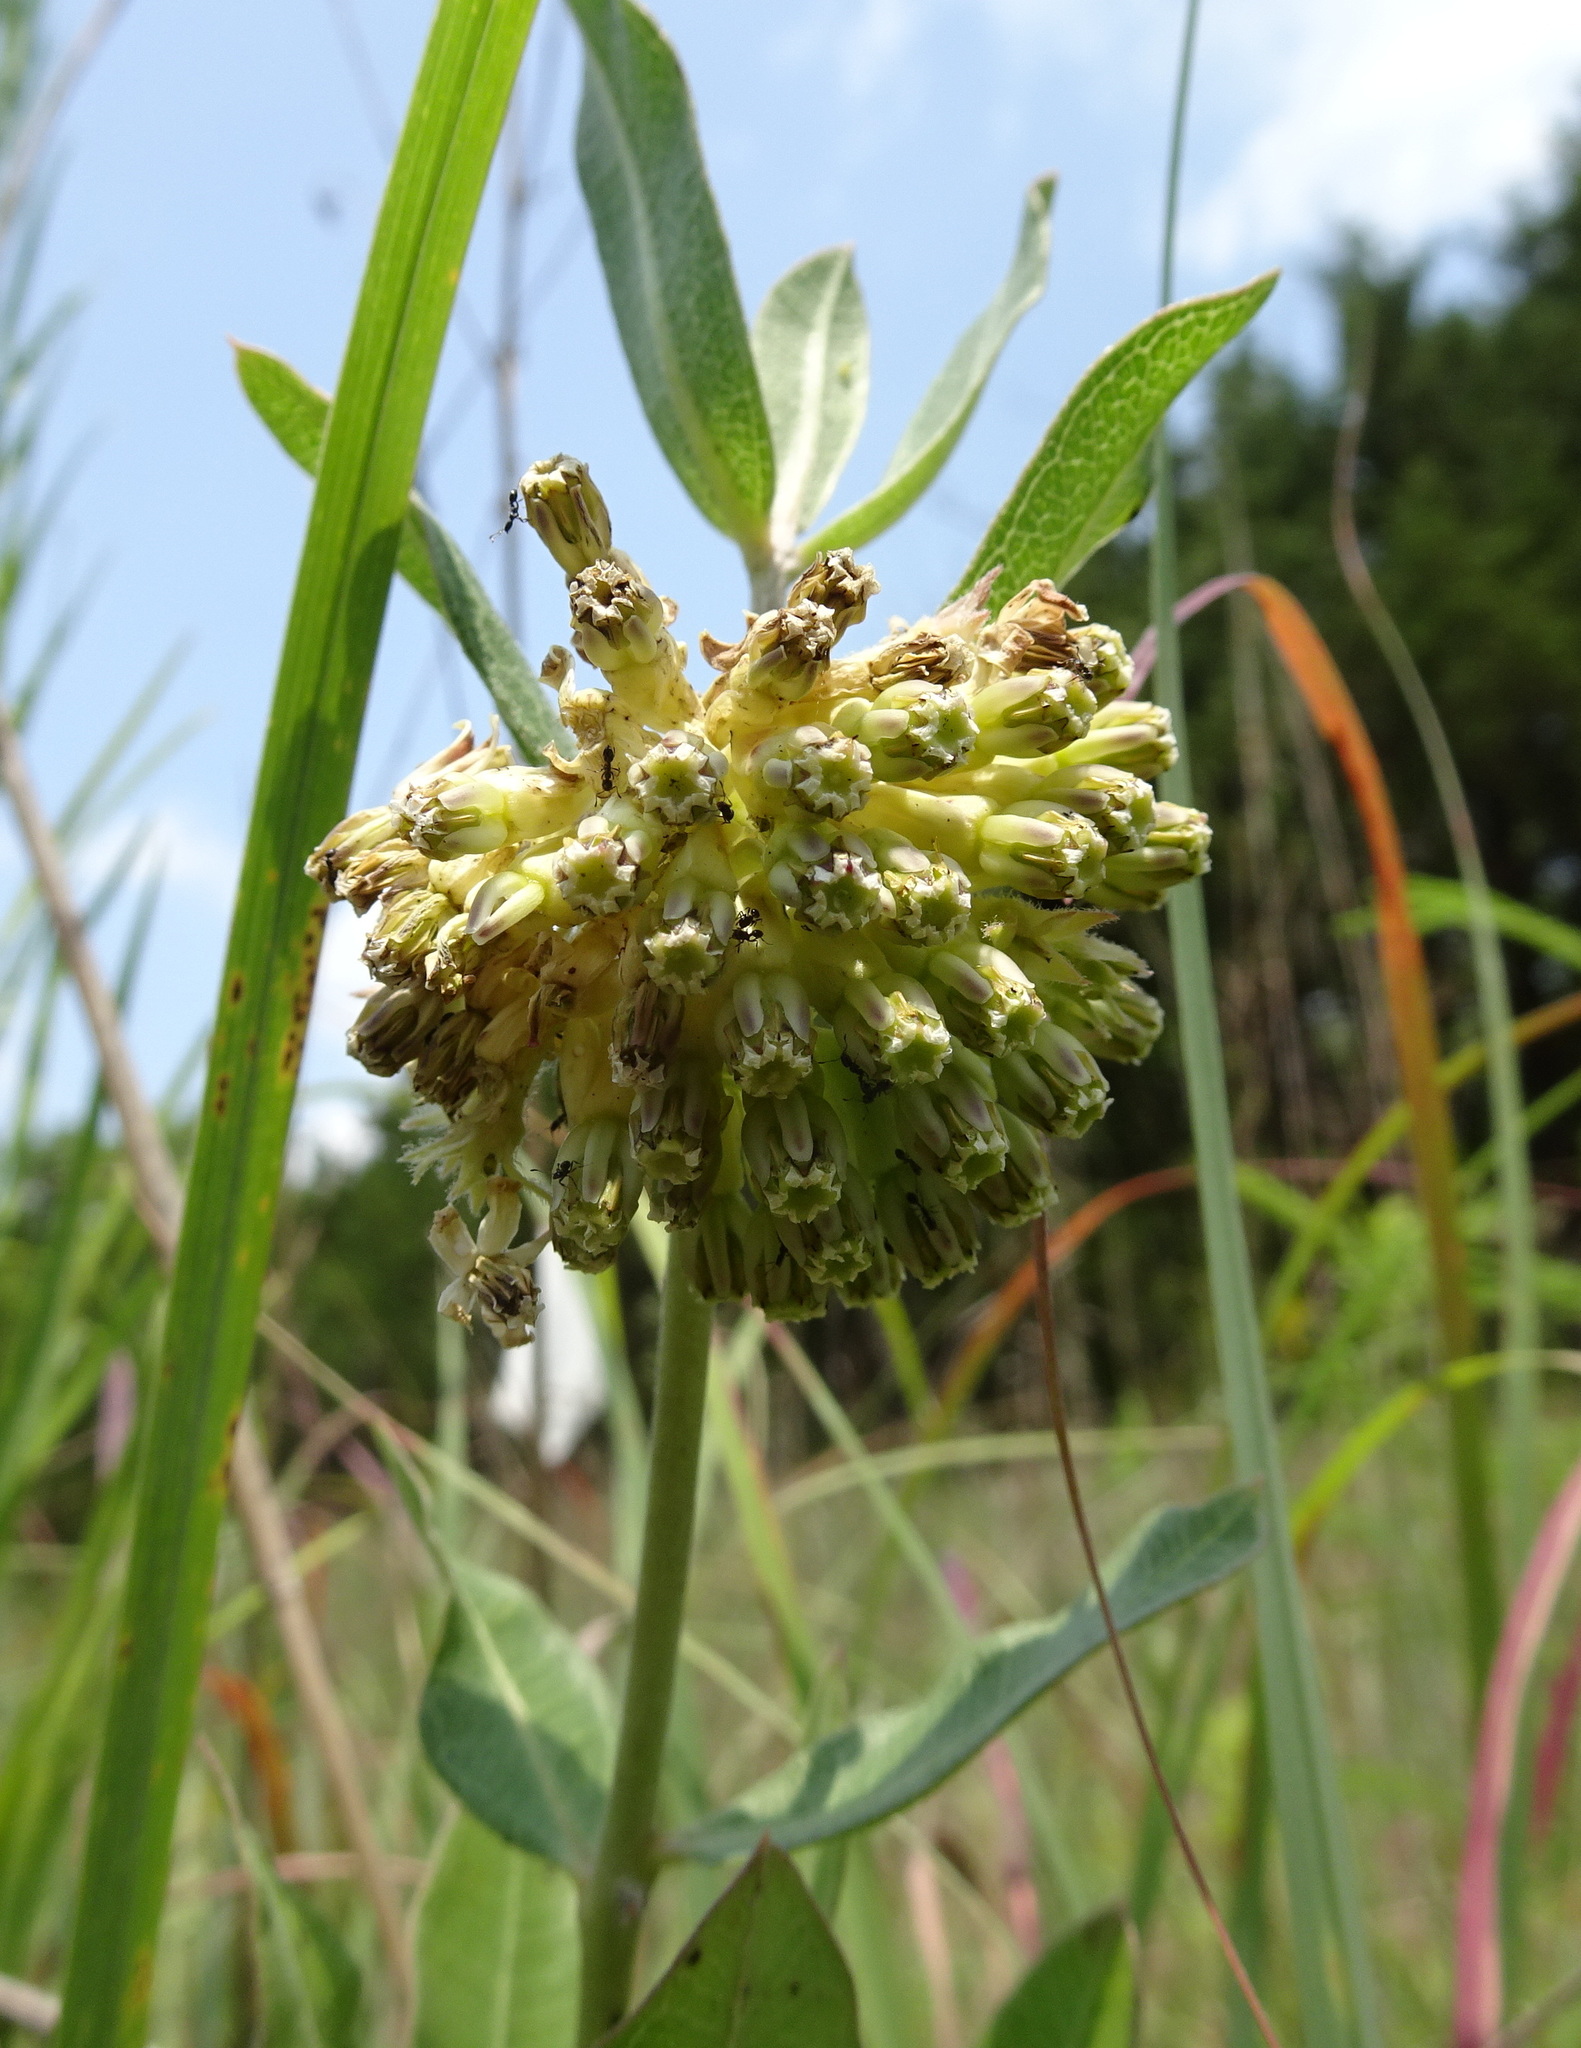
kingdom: Plantae
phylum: Tracheophyta
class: Magnoliopsida
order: Gentianales
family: Apocynaceae
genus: Asclepias
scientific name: Asclepias viridiflora
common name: Green comet milkweed
